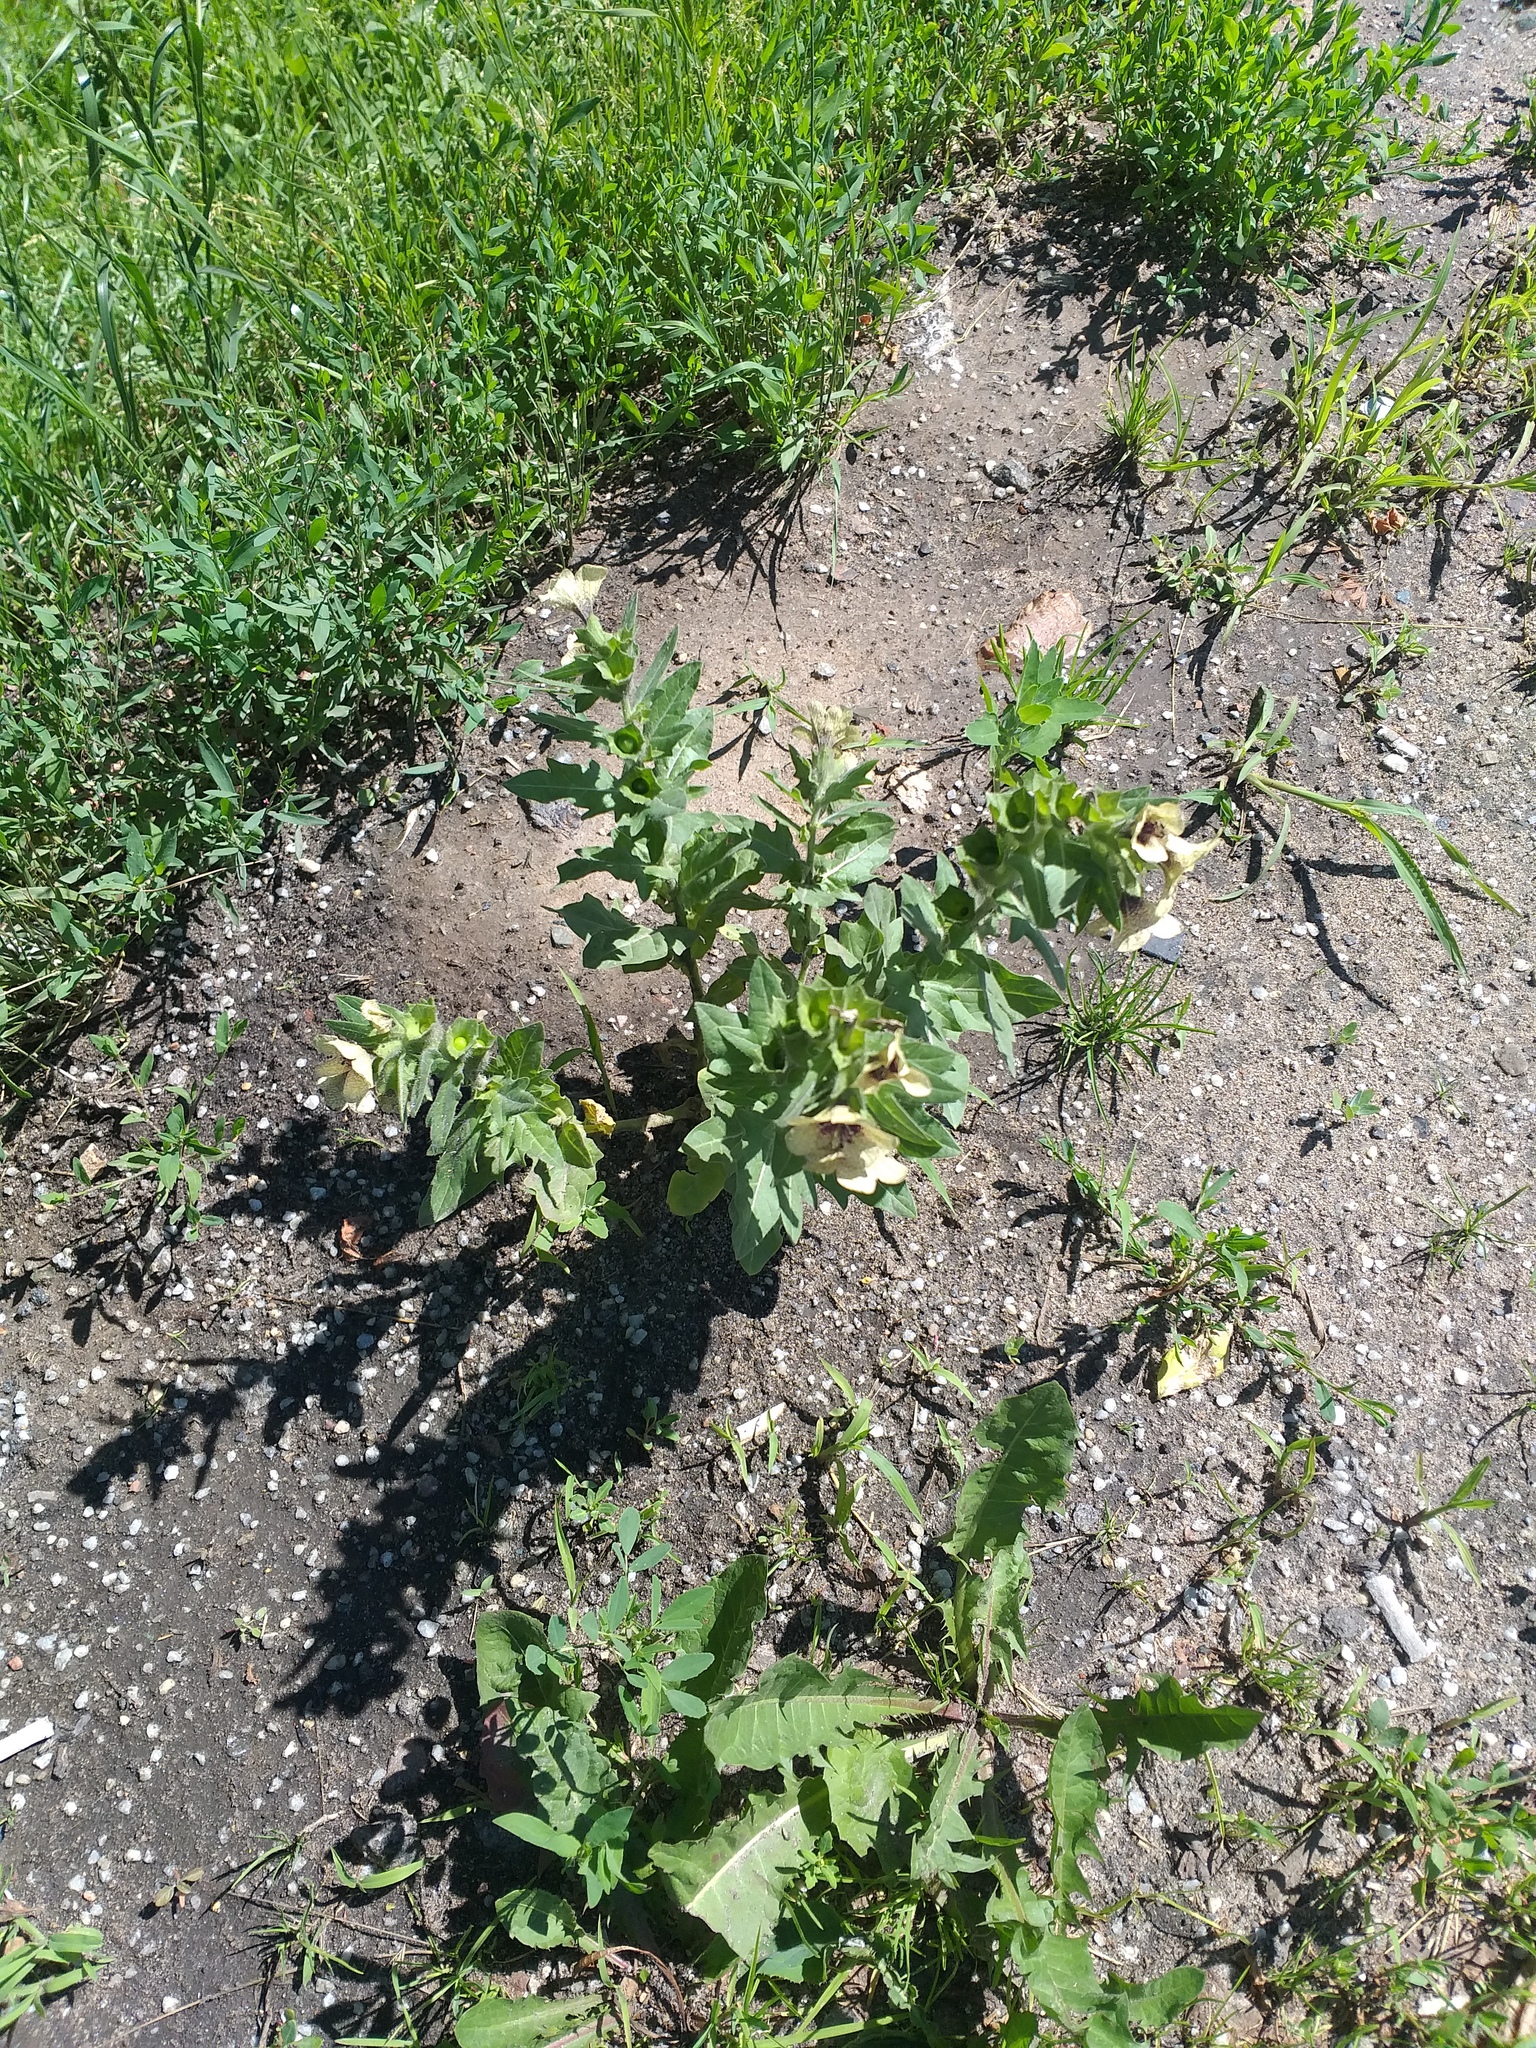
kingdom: Plantae
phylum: Tracheophyta
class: Magnoliopsida
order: Solanales
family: Solanaceae
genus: Hyoscyamus
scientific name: Hyoscyamus niger
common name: Henbane
